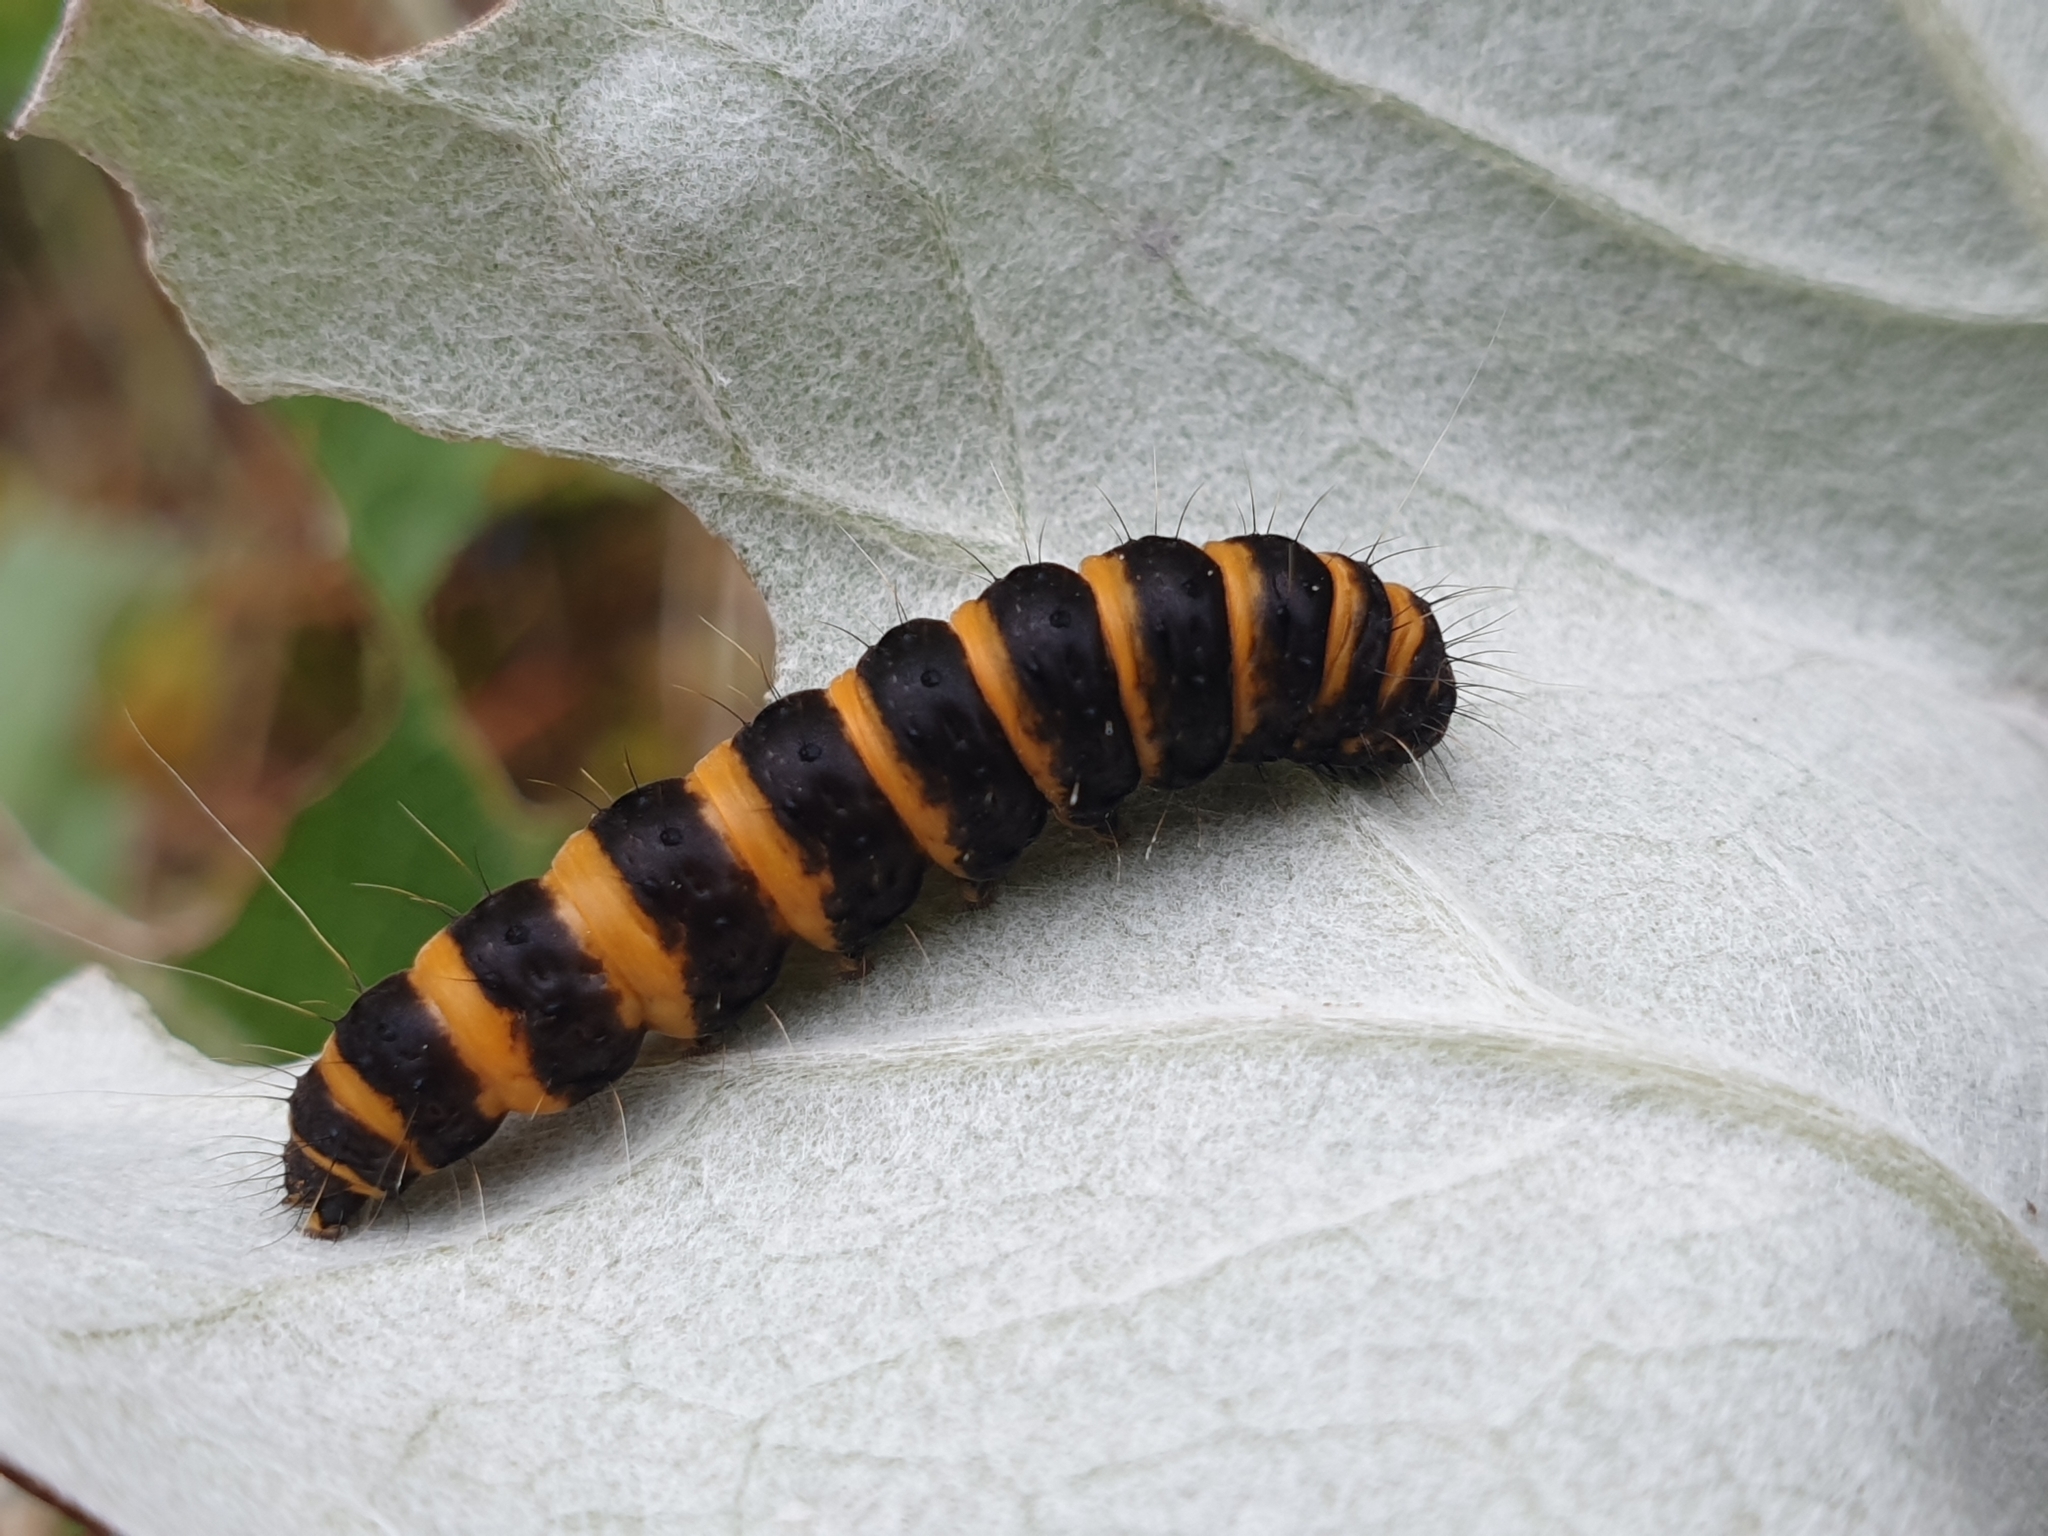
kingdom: Animalia
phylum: Arthropoda
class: Insecta
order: Lepidoptera
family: Erebidae
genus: Tyria
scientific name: Tyria jacobaeae
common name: Cinnabar
